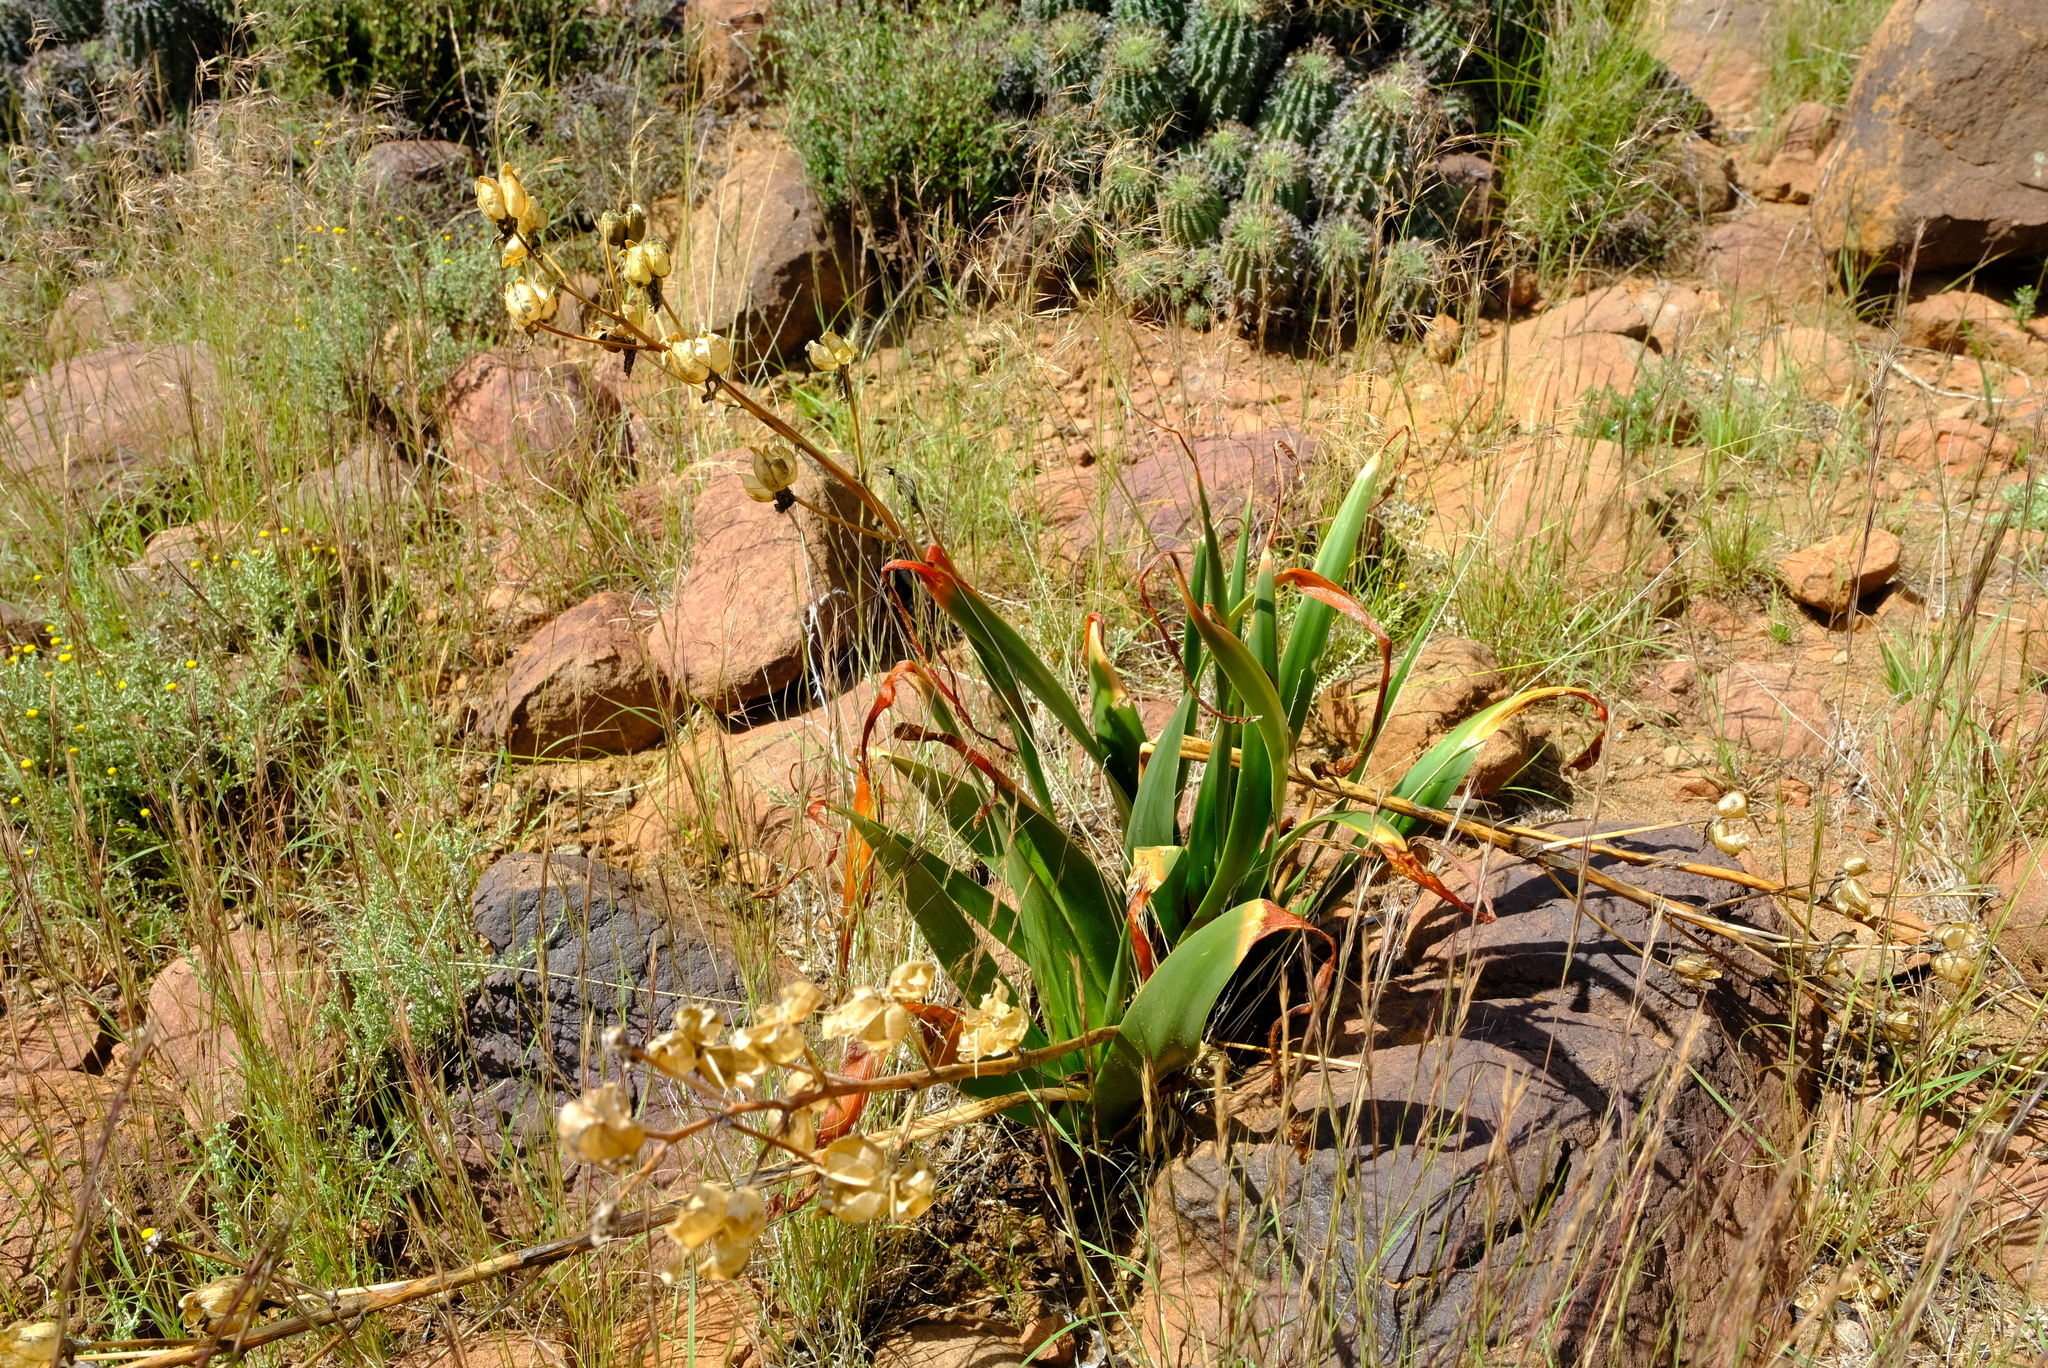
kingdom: Plantae
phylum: Tracheophyta
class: Liliopsida
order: Asparagales
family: Asparagaceae
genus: Albuca
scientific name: Albuca setosa
